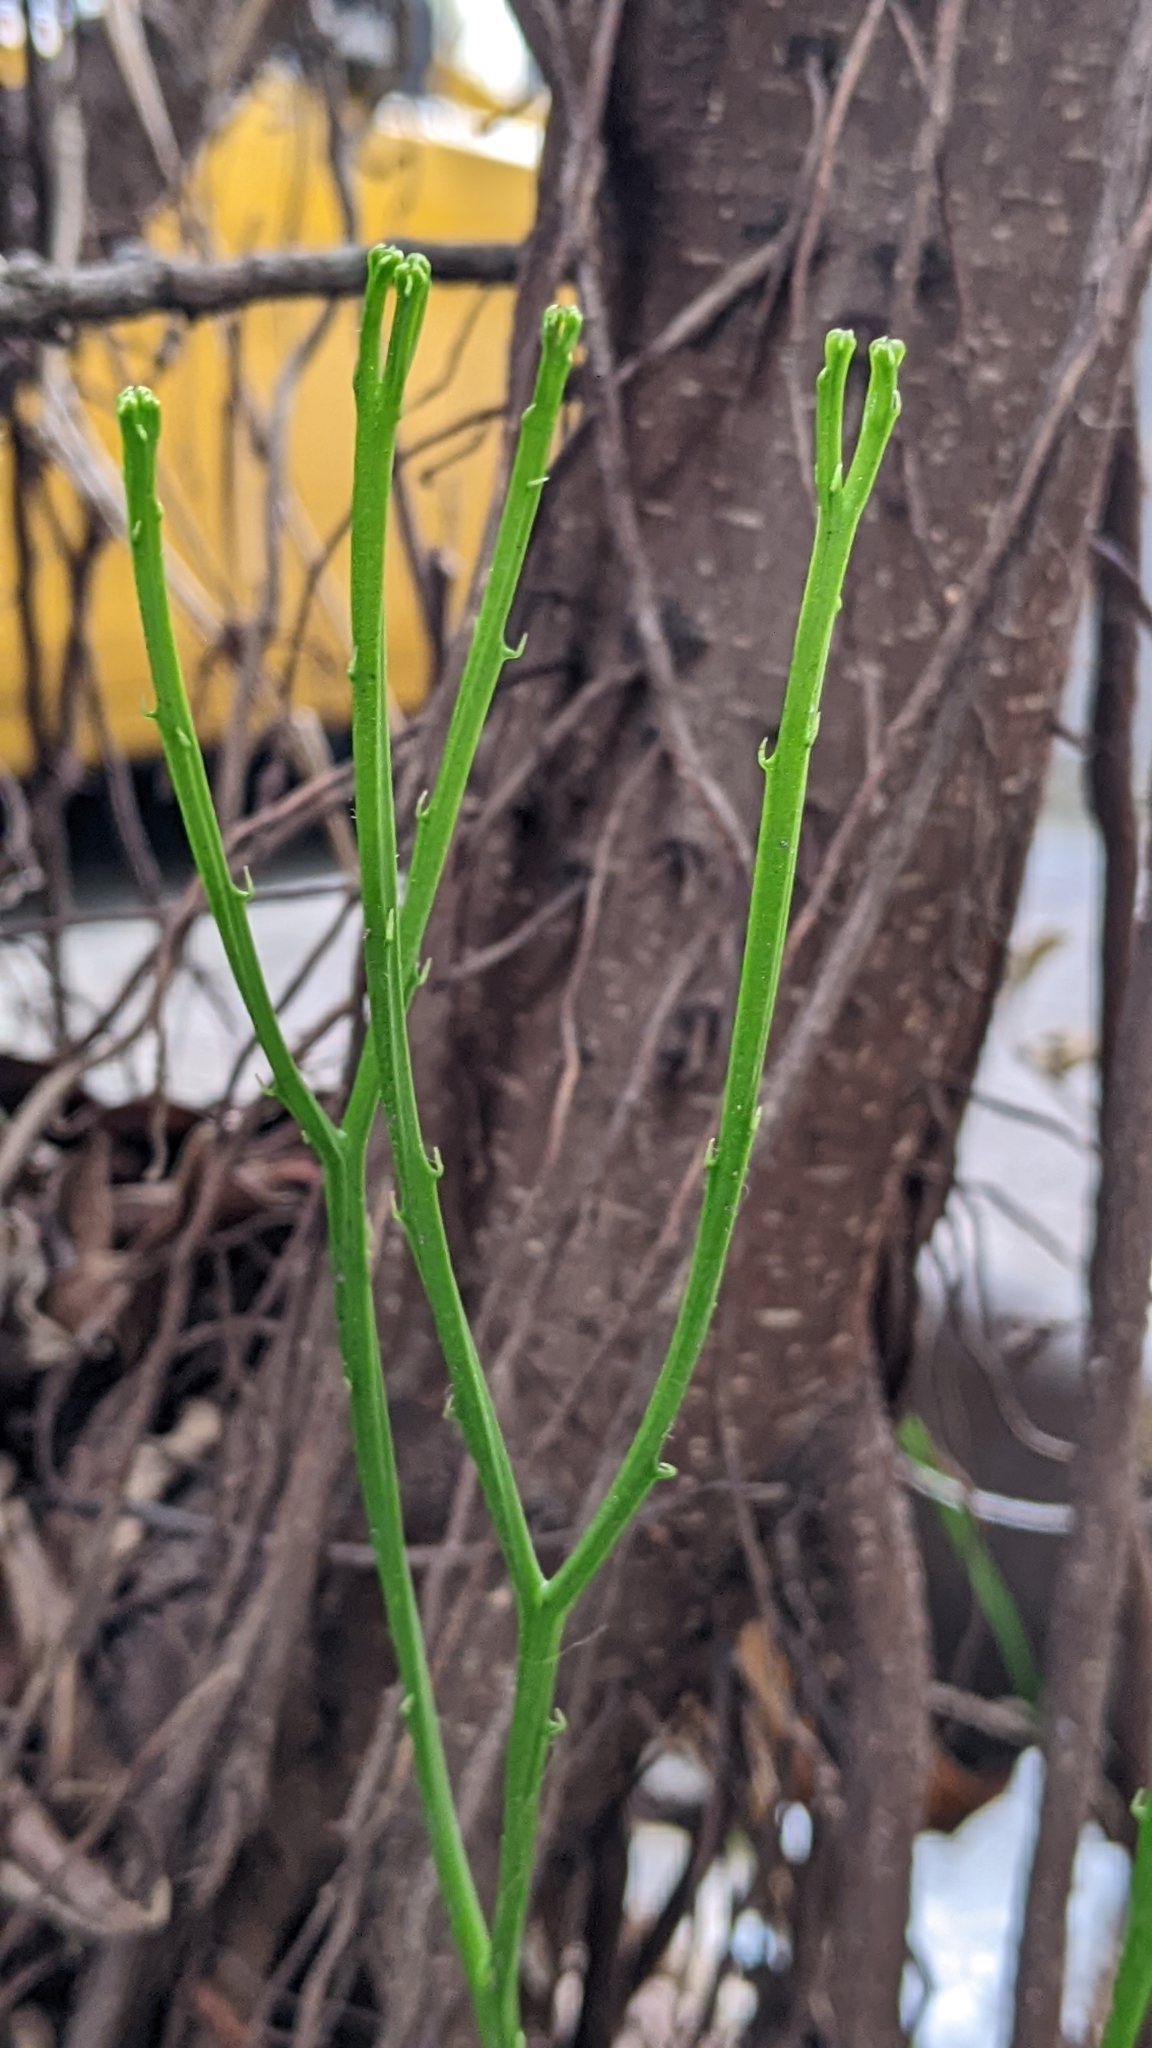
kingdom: Plantae
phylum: Tracheophyta
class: Polypodiopsida
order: Psilotales
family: Psilotaceae
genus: Psilotum
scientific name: Psilotum nudum
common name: Skeleton fork fern
